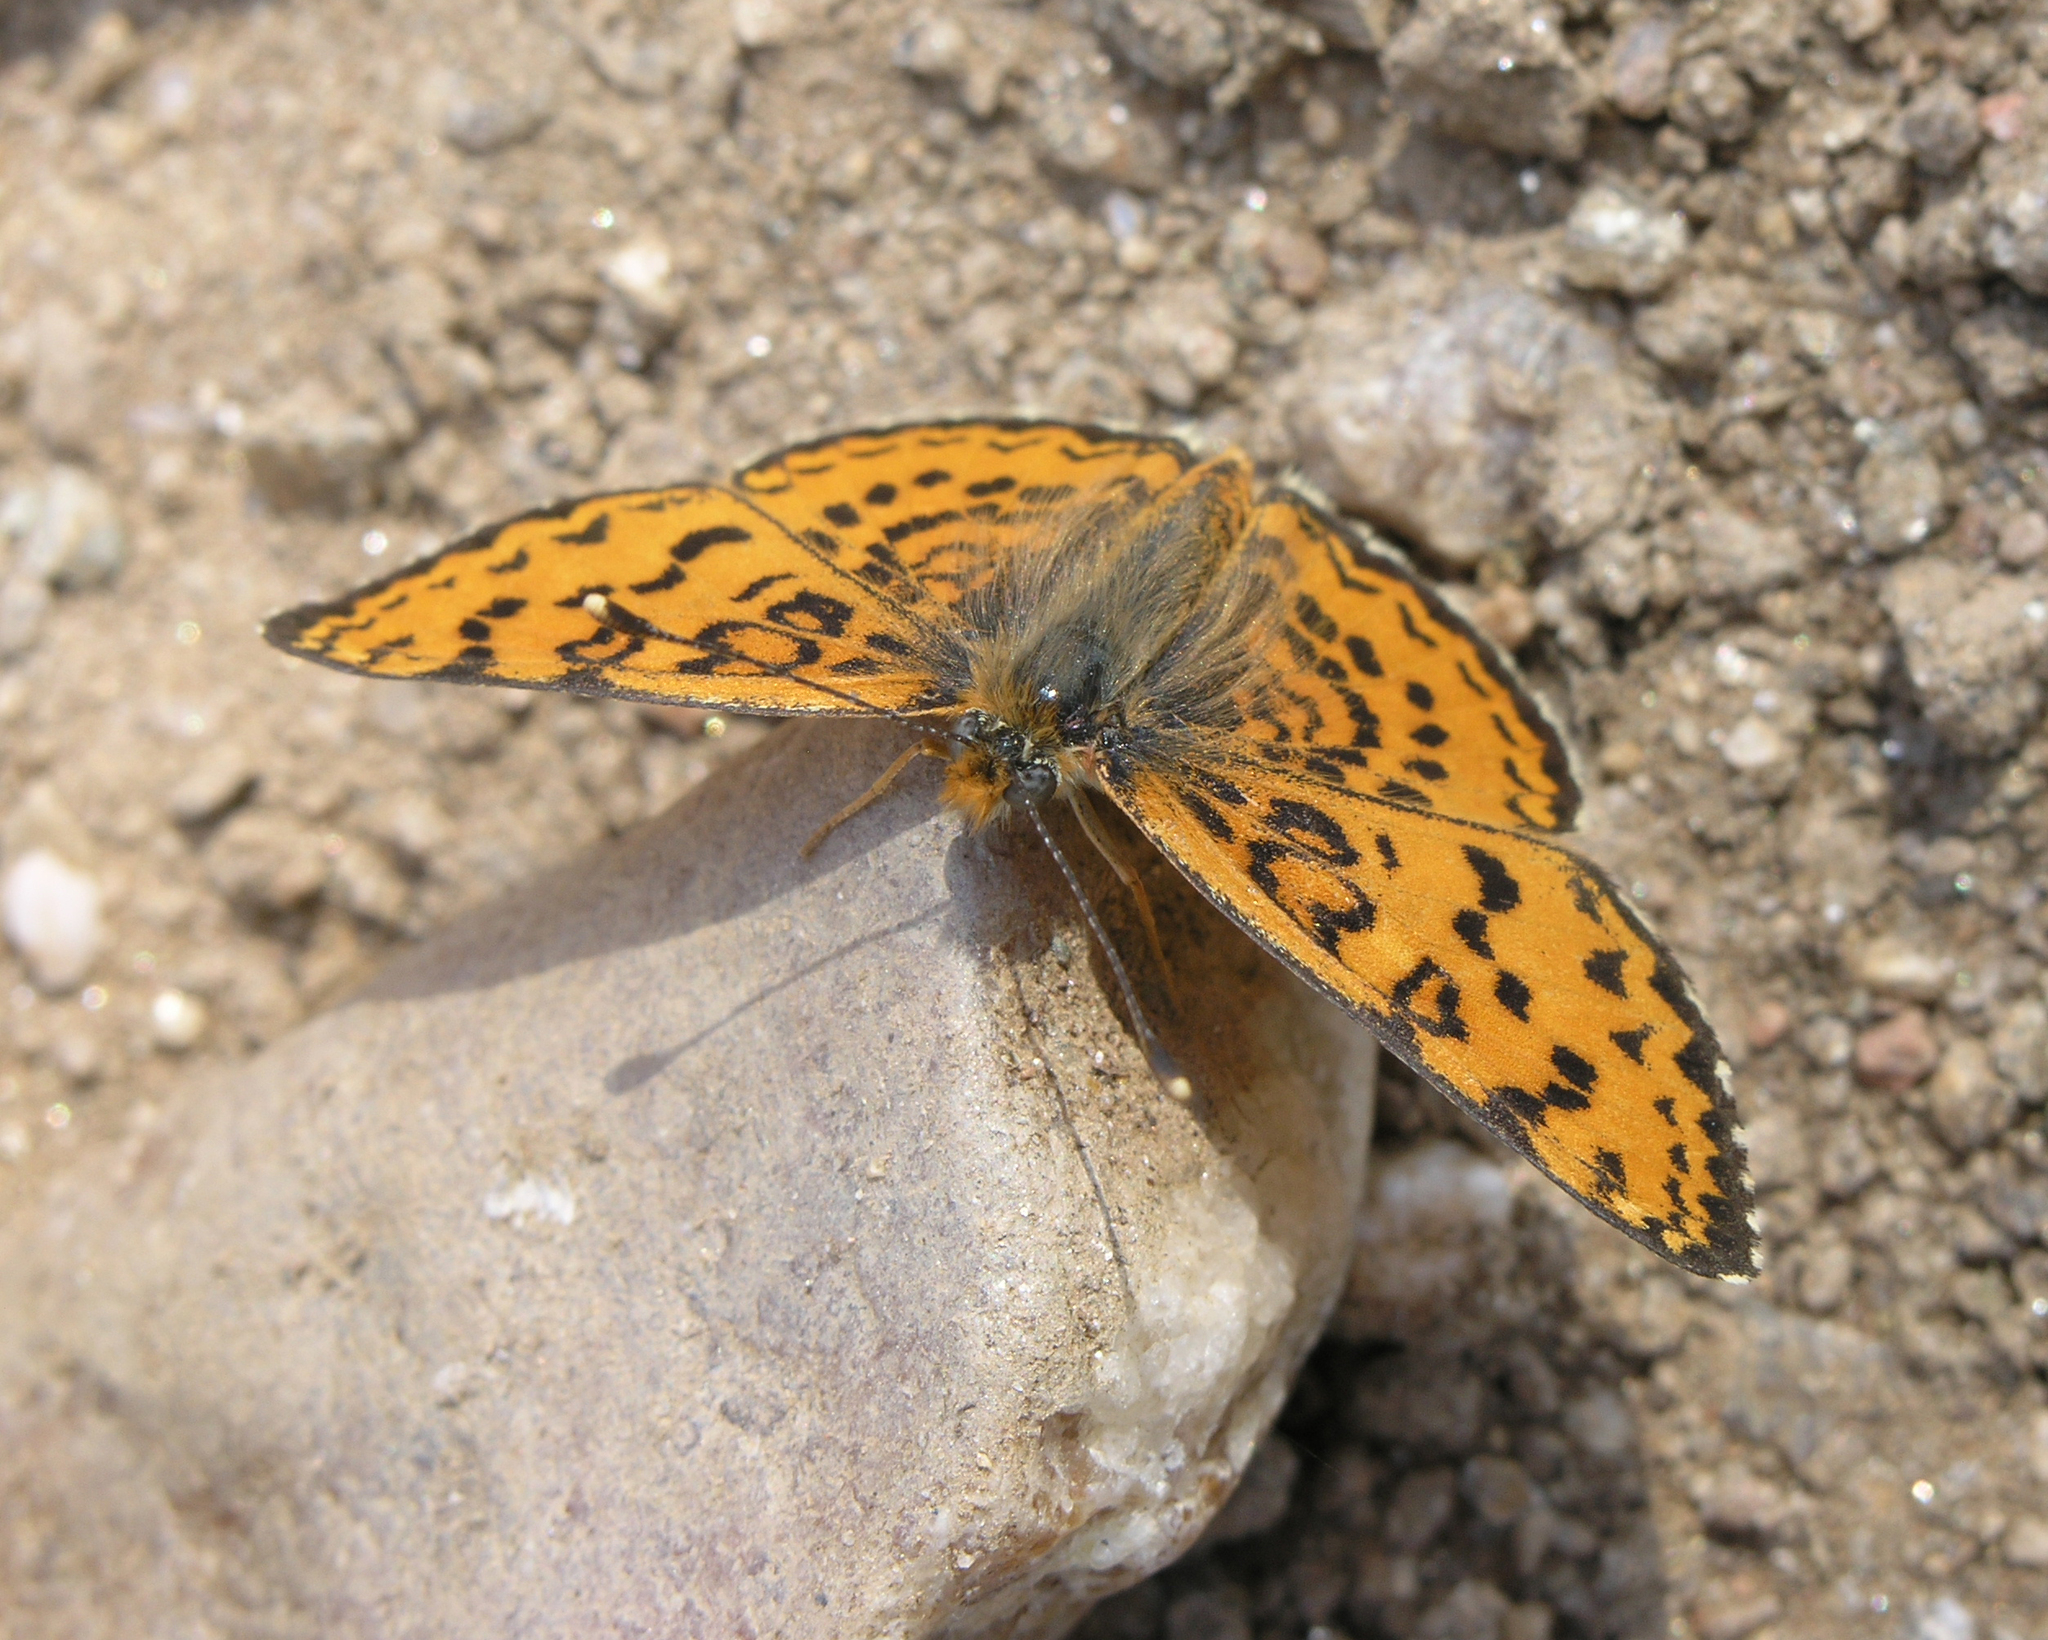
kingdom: Animalia
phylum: Arthropoda
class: Insecta
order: Lepidoptera
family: Nymphalidae
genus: Melitaea
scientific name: Melitaea trivia
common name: Lesser spotted fritillary
